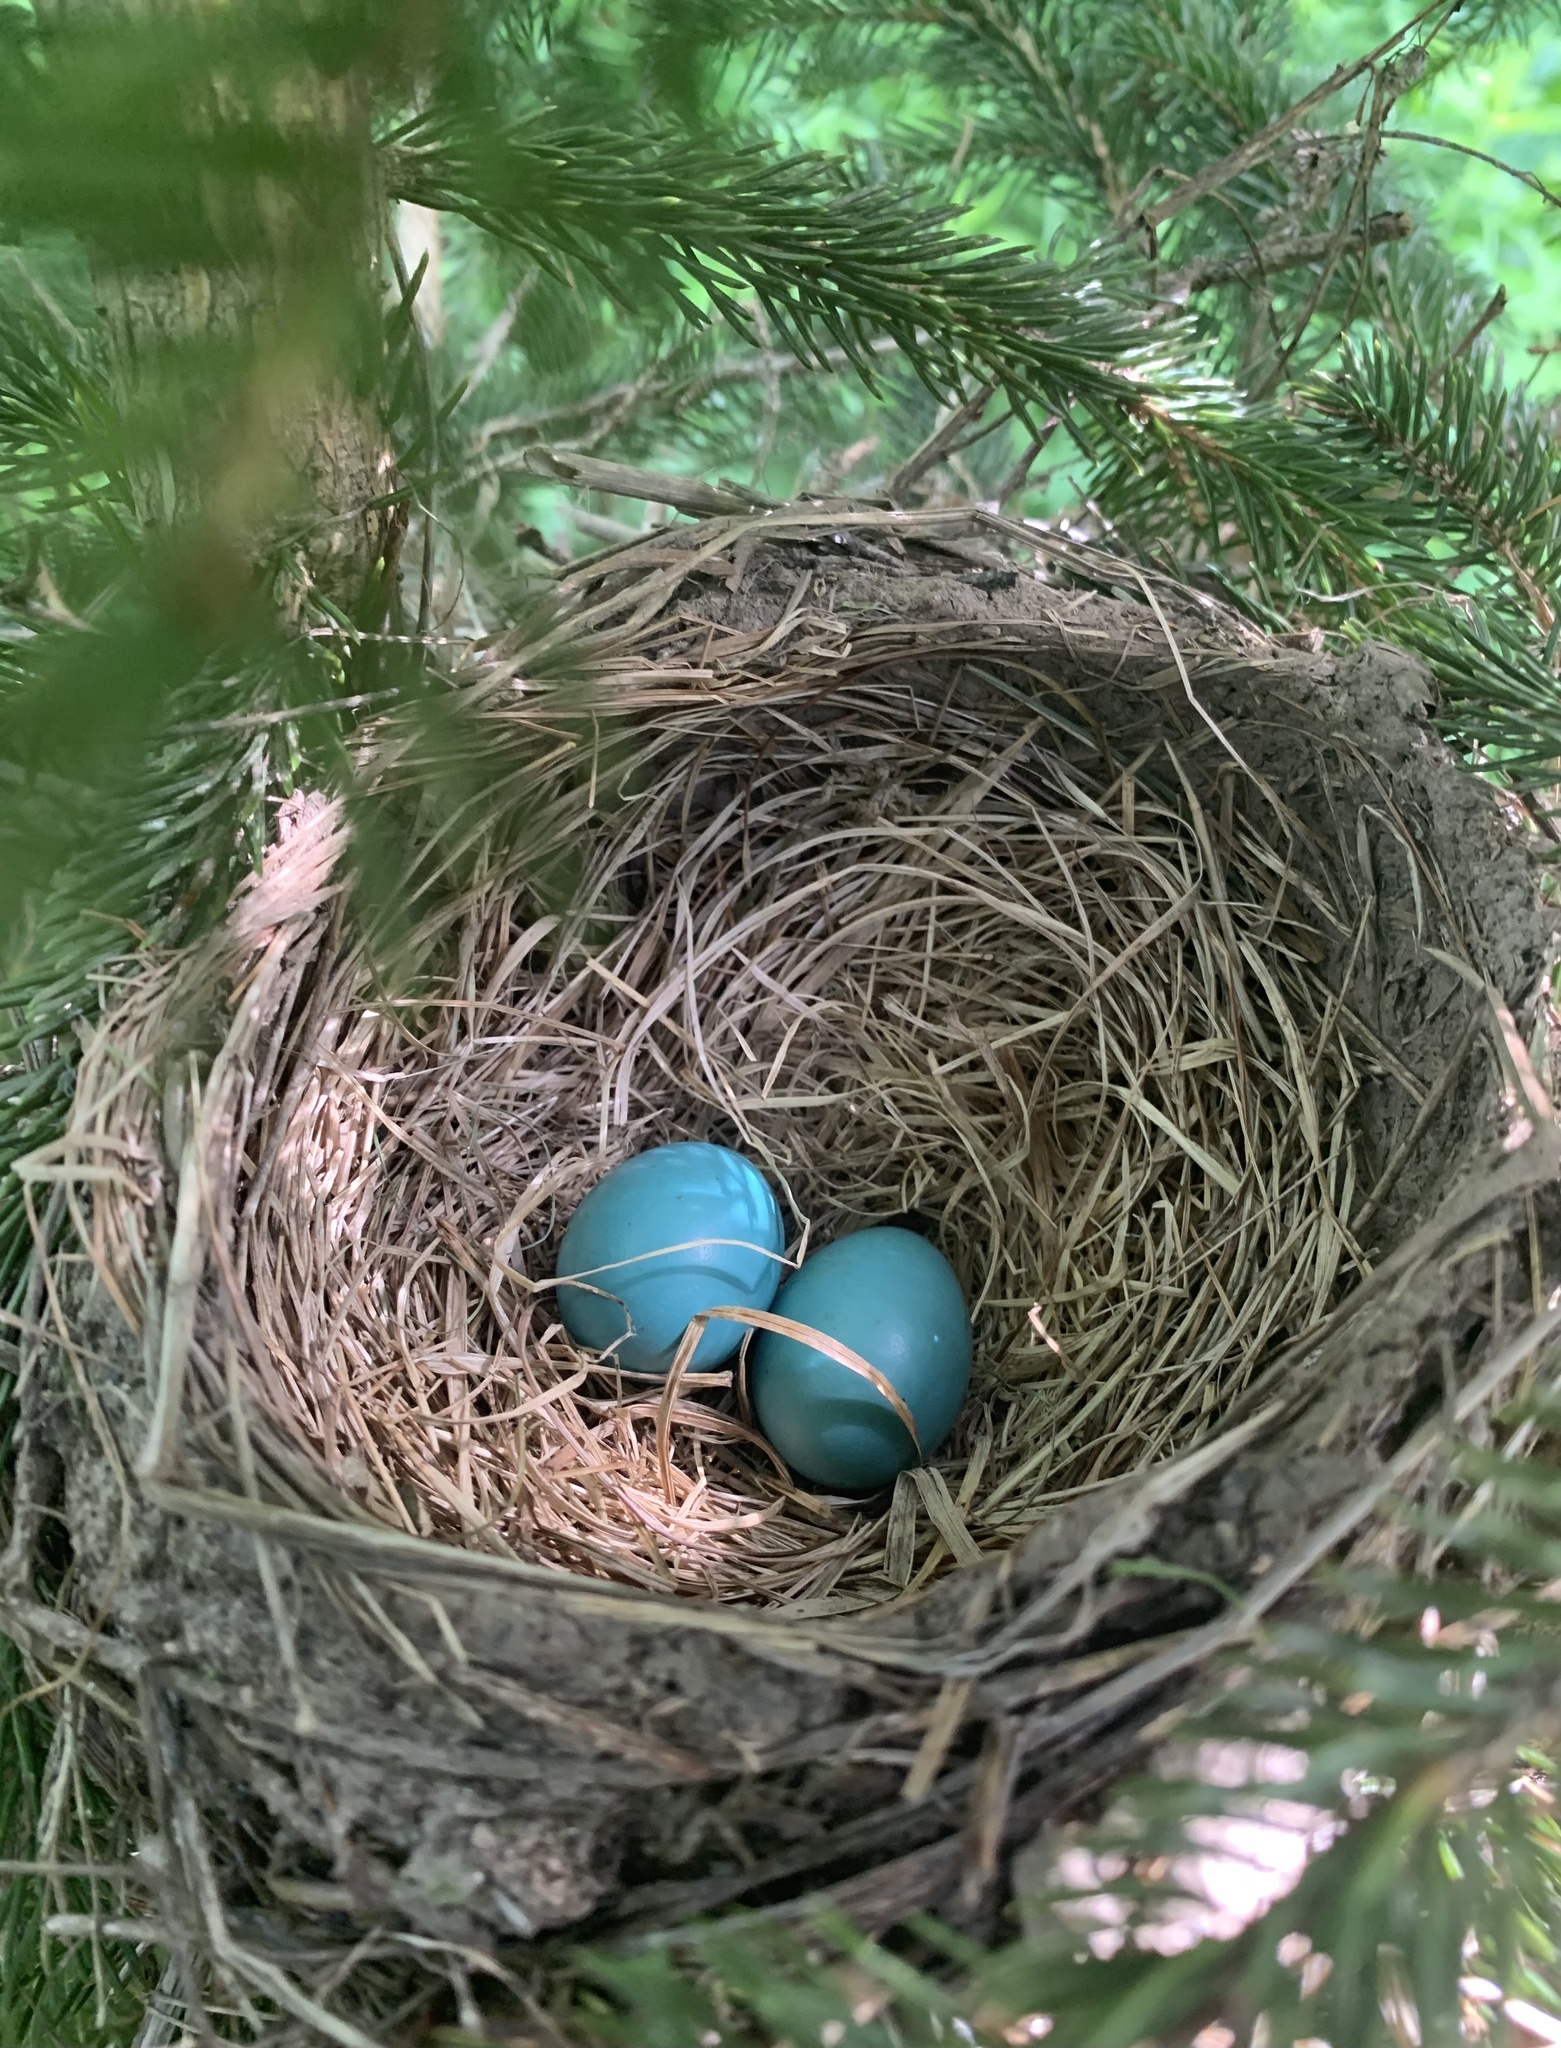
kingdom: Animalia
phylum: Chordata
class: Aves
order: Passeriformes
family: Turdidae
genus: Turdus
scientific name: Turdus migratorius
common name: American robin
